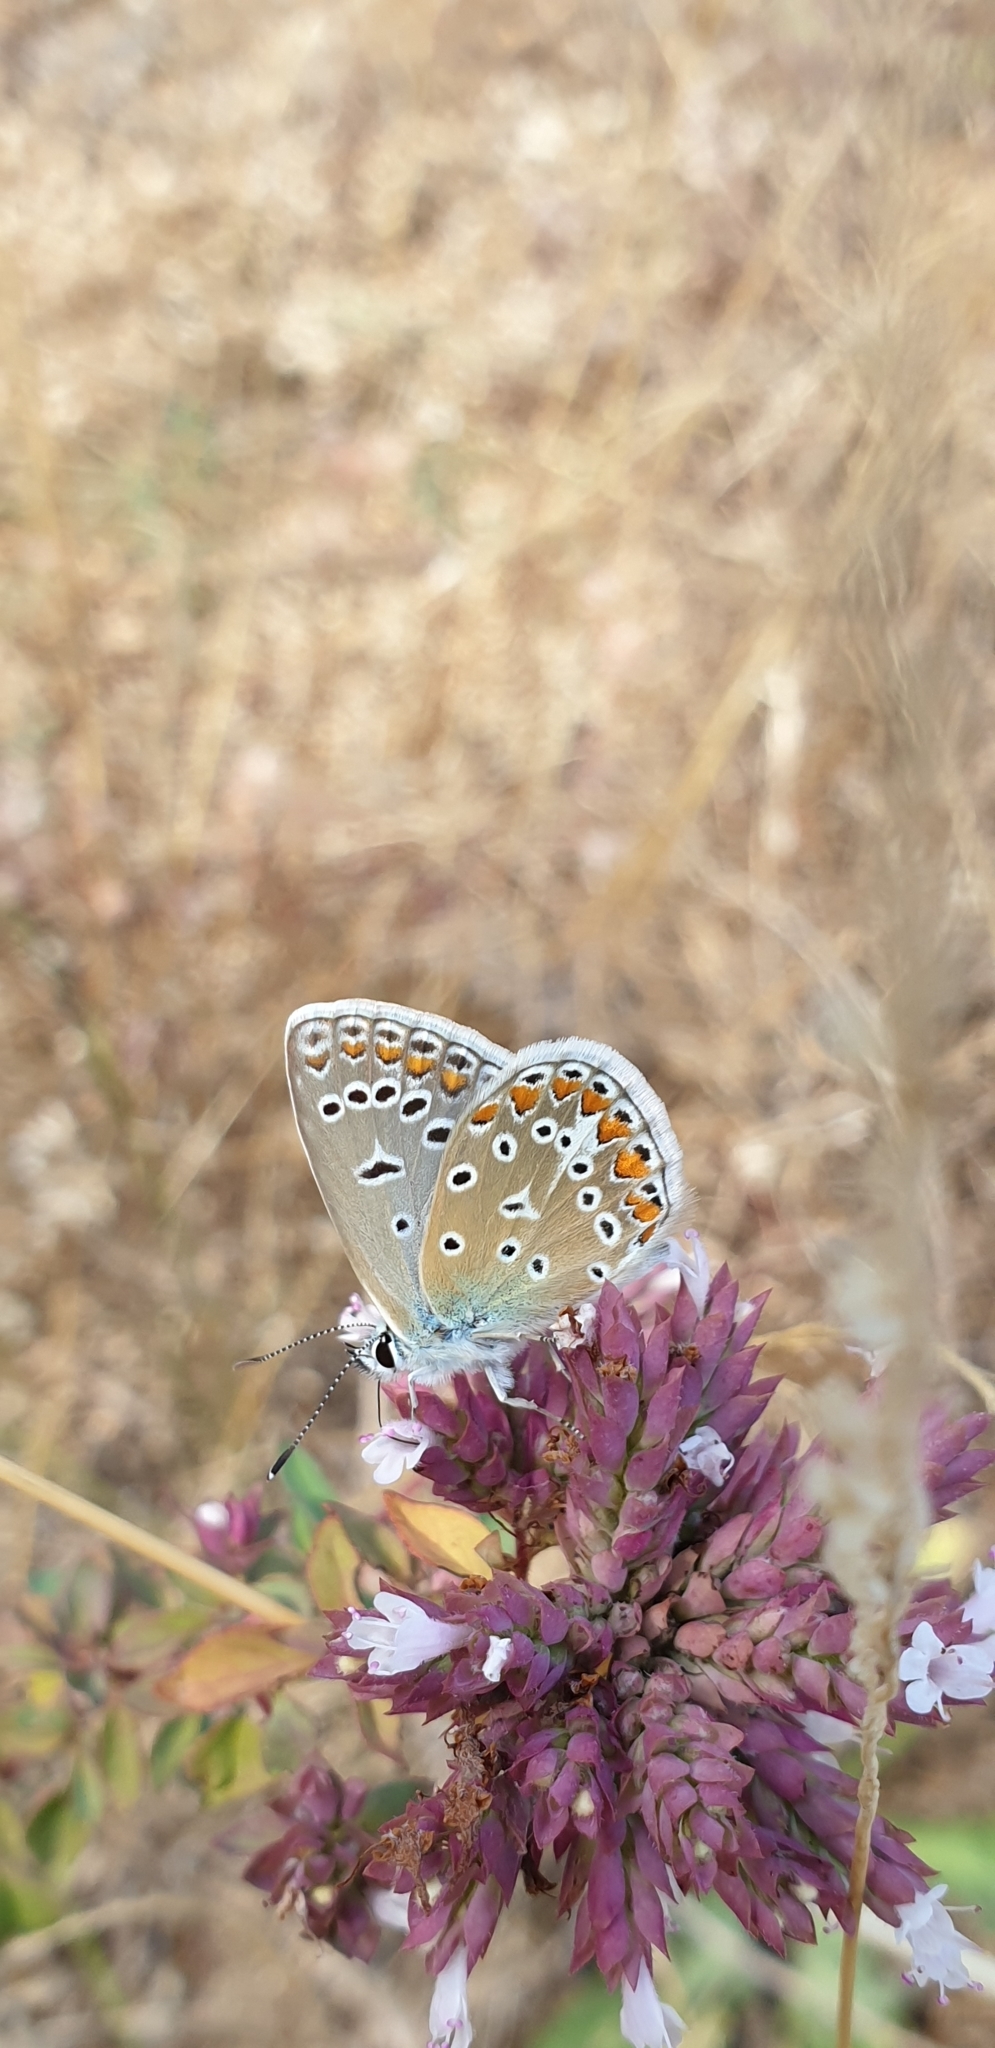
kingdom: Animalia
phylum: Arthropoda
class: Insecta
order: Lepidoptera
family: Lycaenidae
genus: Polyommatus
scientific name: Polyommatus icarus
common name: Common blue
